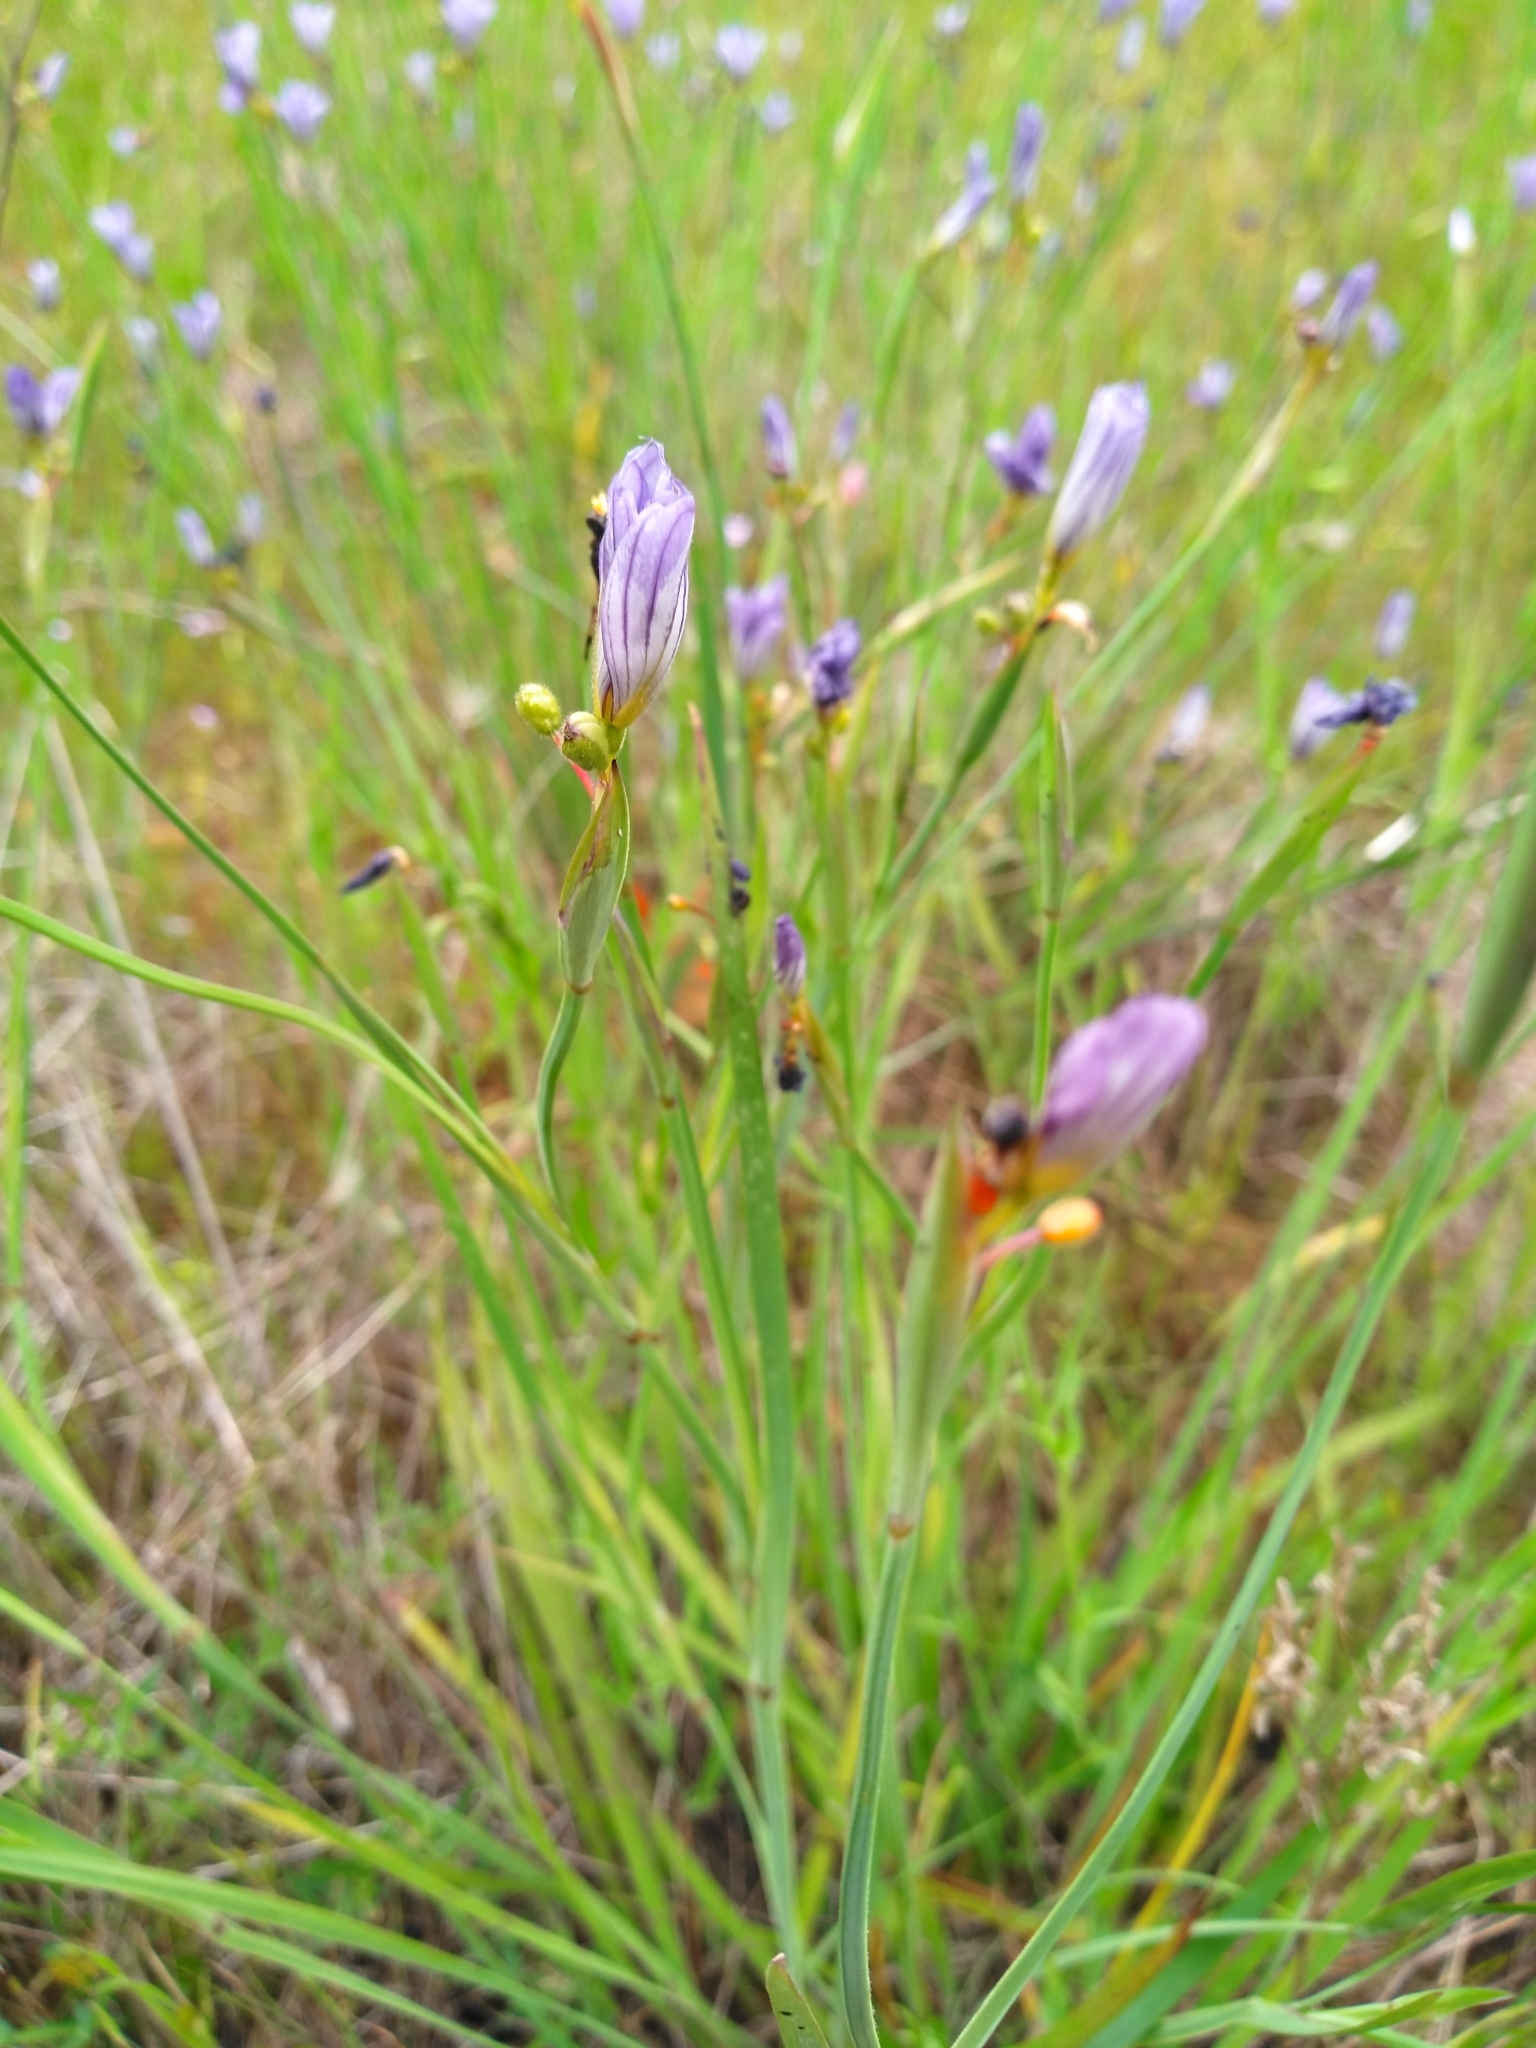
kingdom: Plantae
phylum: Tracheophyta
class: Liliopsida
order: Asparagales
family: Iridaceae
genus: Sisyrinchium
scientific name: Sisyrinchium bellum
